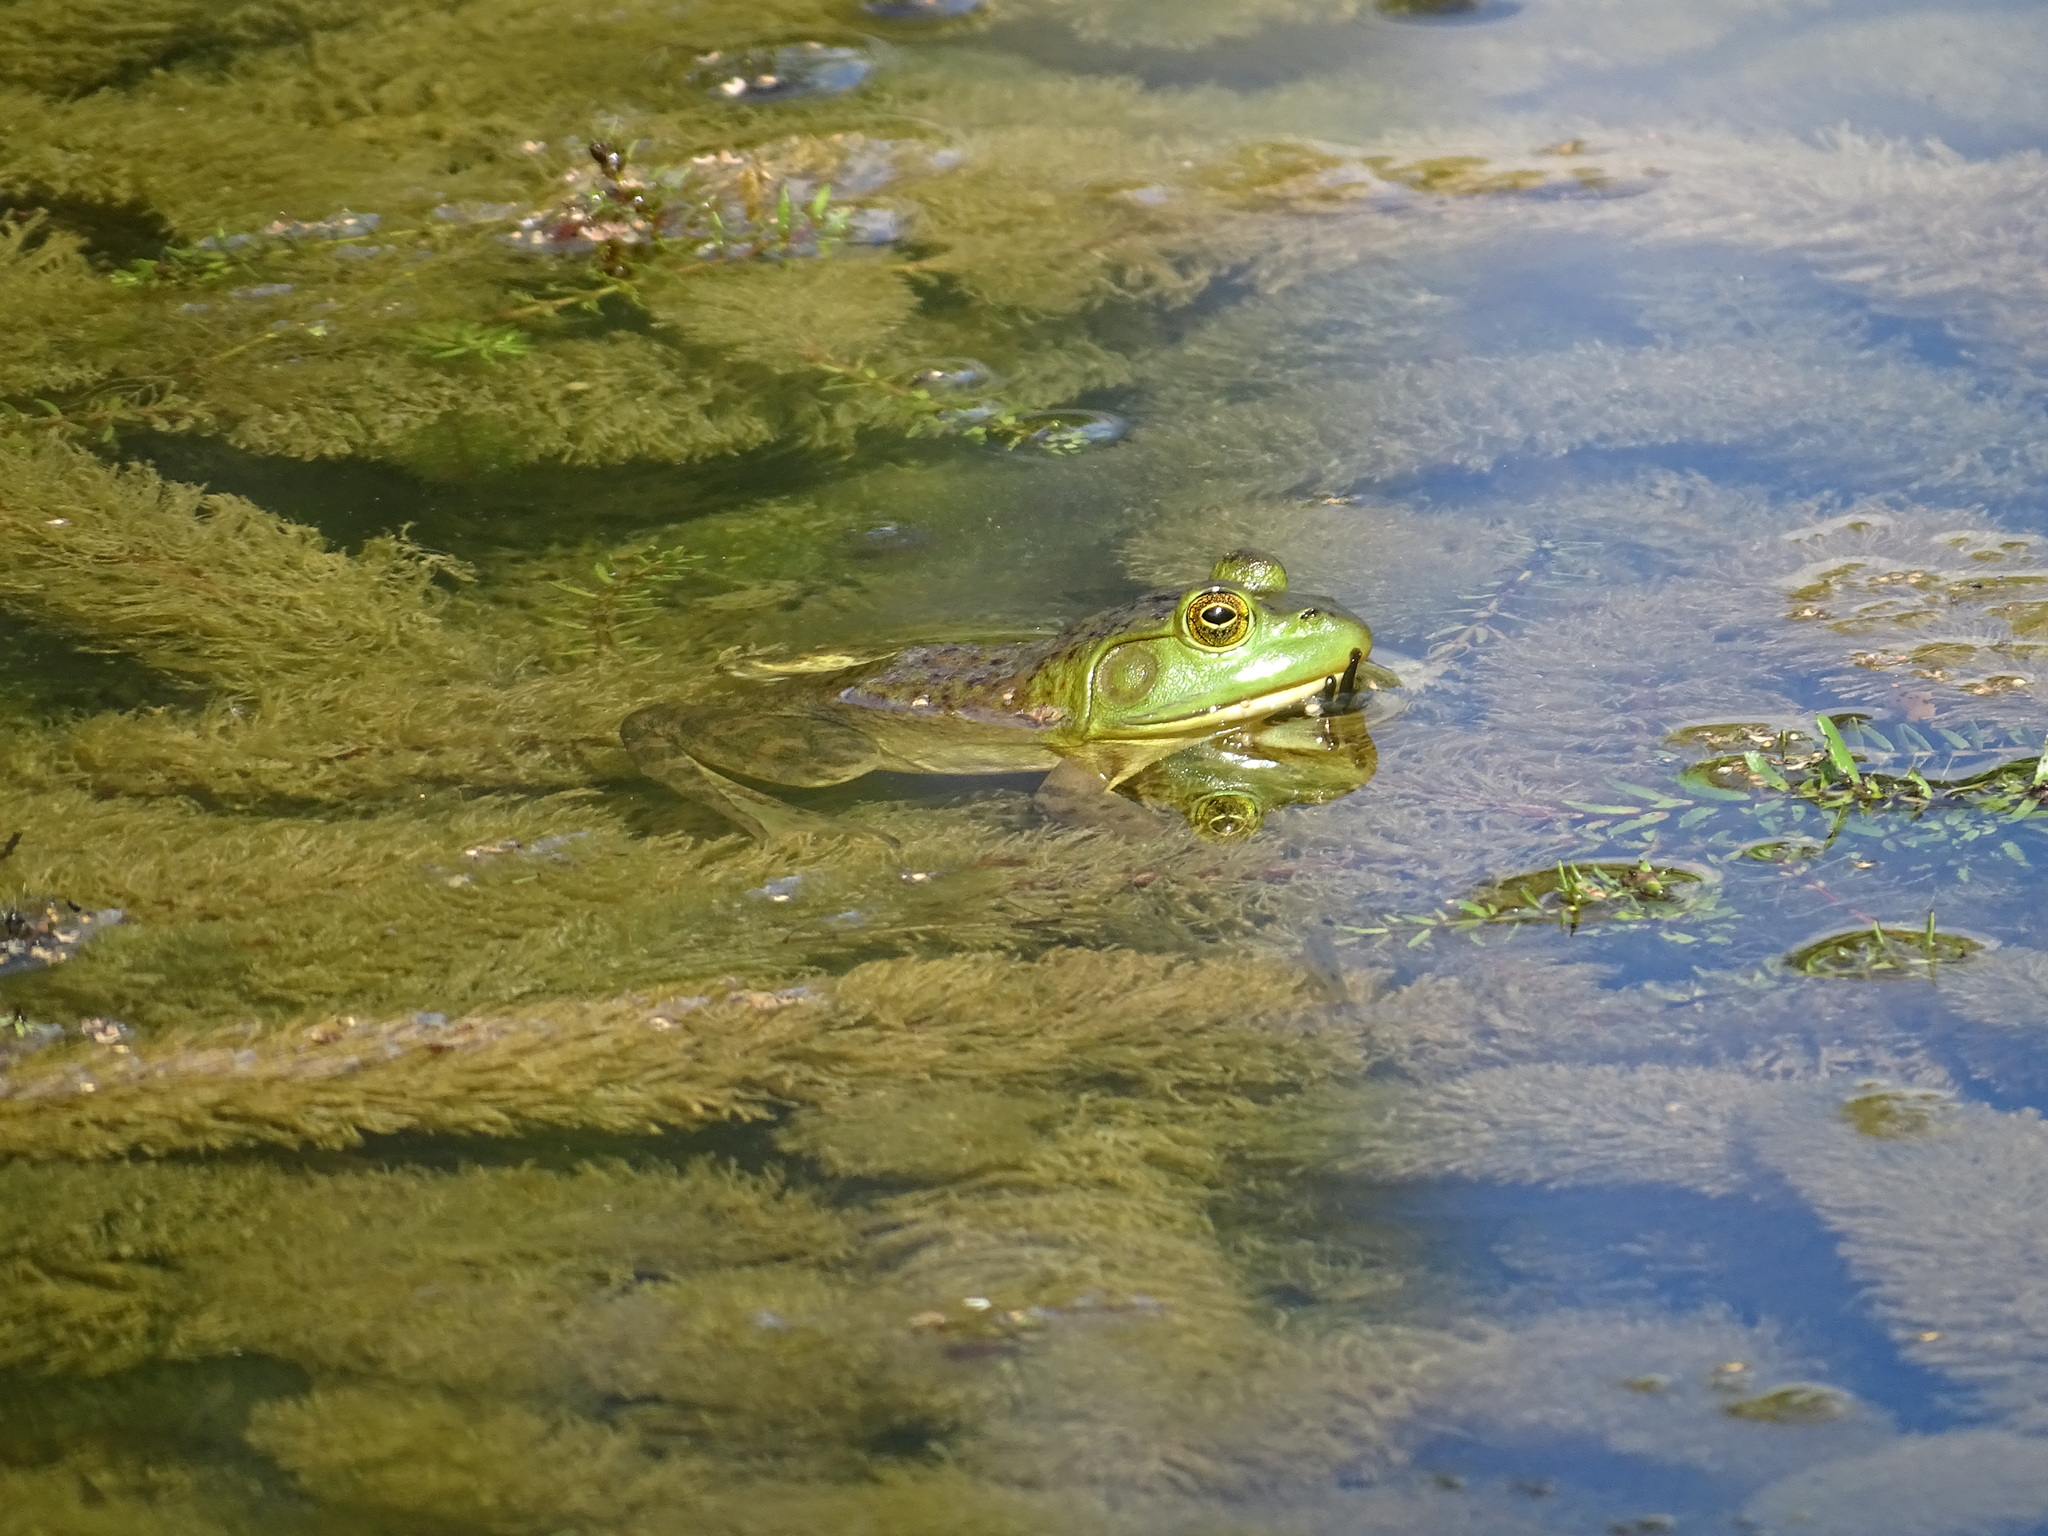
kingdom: Animalia
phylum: Chordata
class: Amphibia
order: Anura
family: Ranidae
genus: Lithobates
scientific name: Lithobates catesbeianus
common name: American bullfrog
